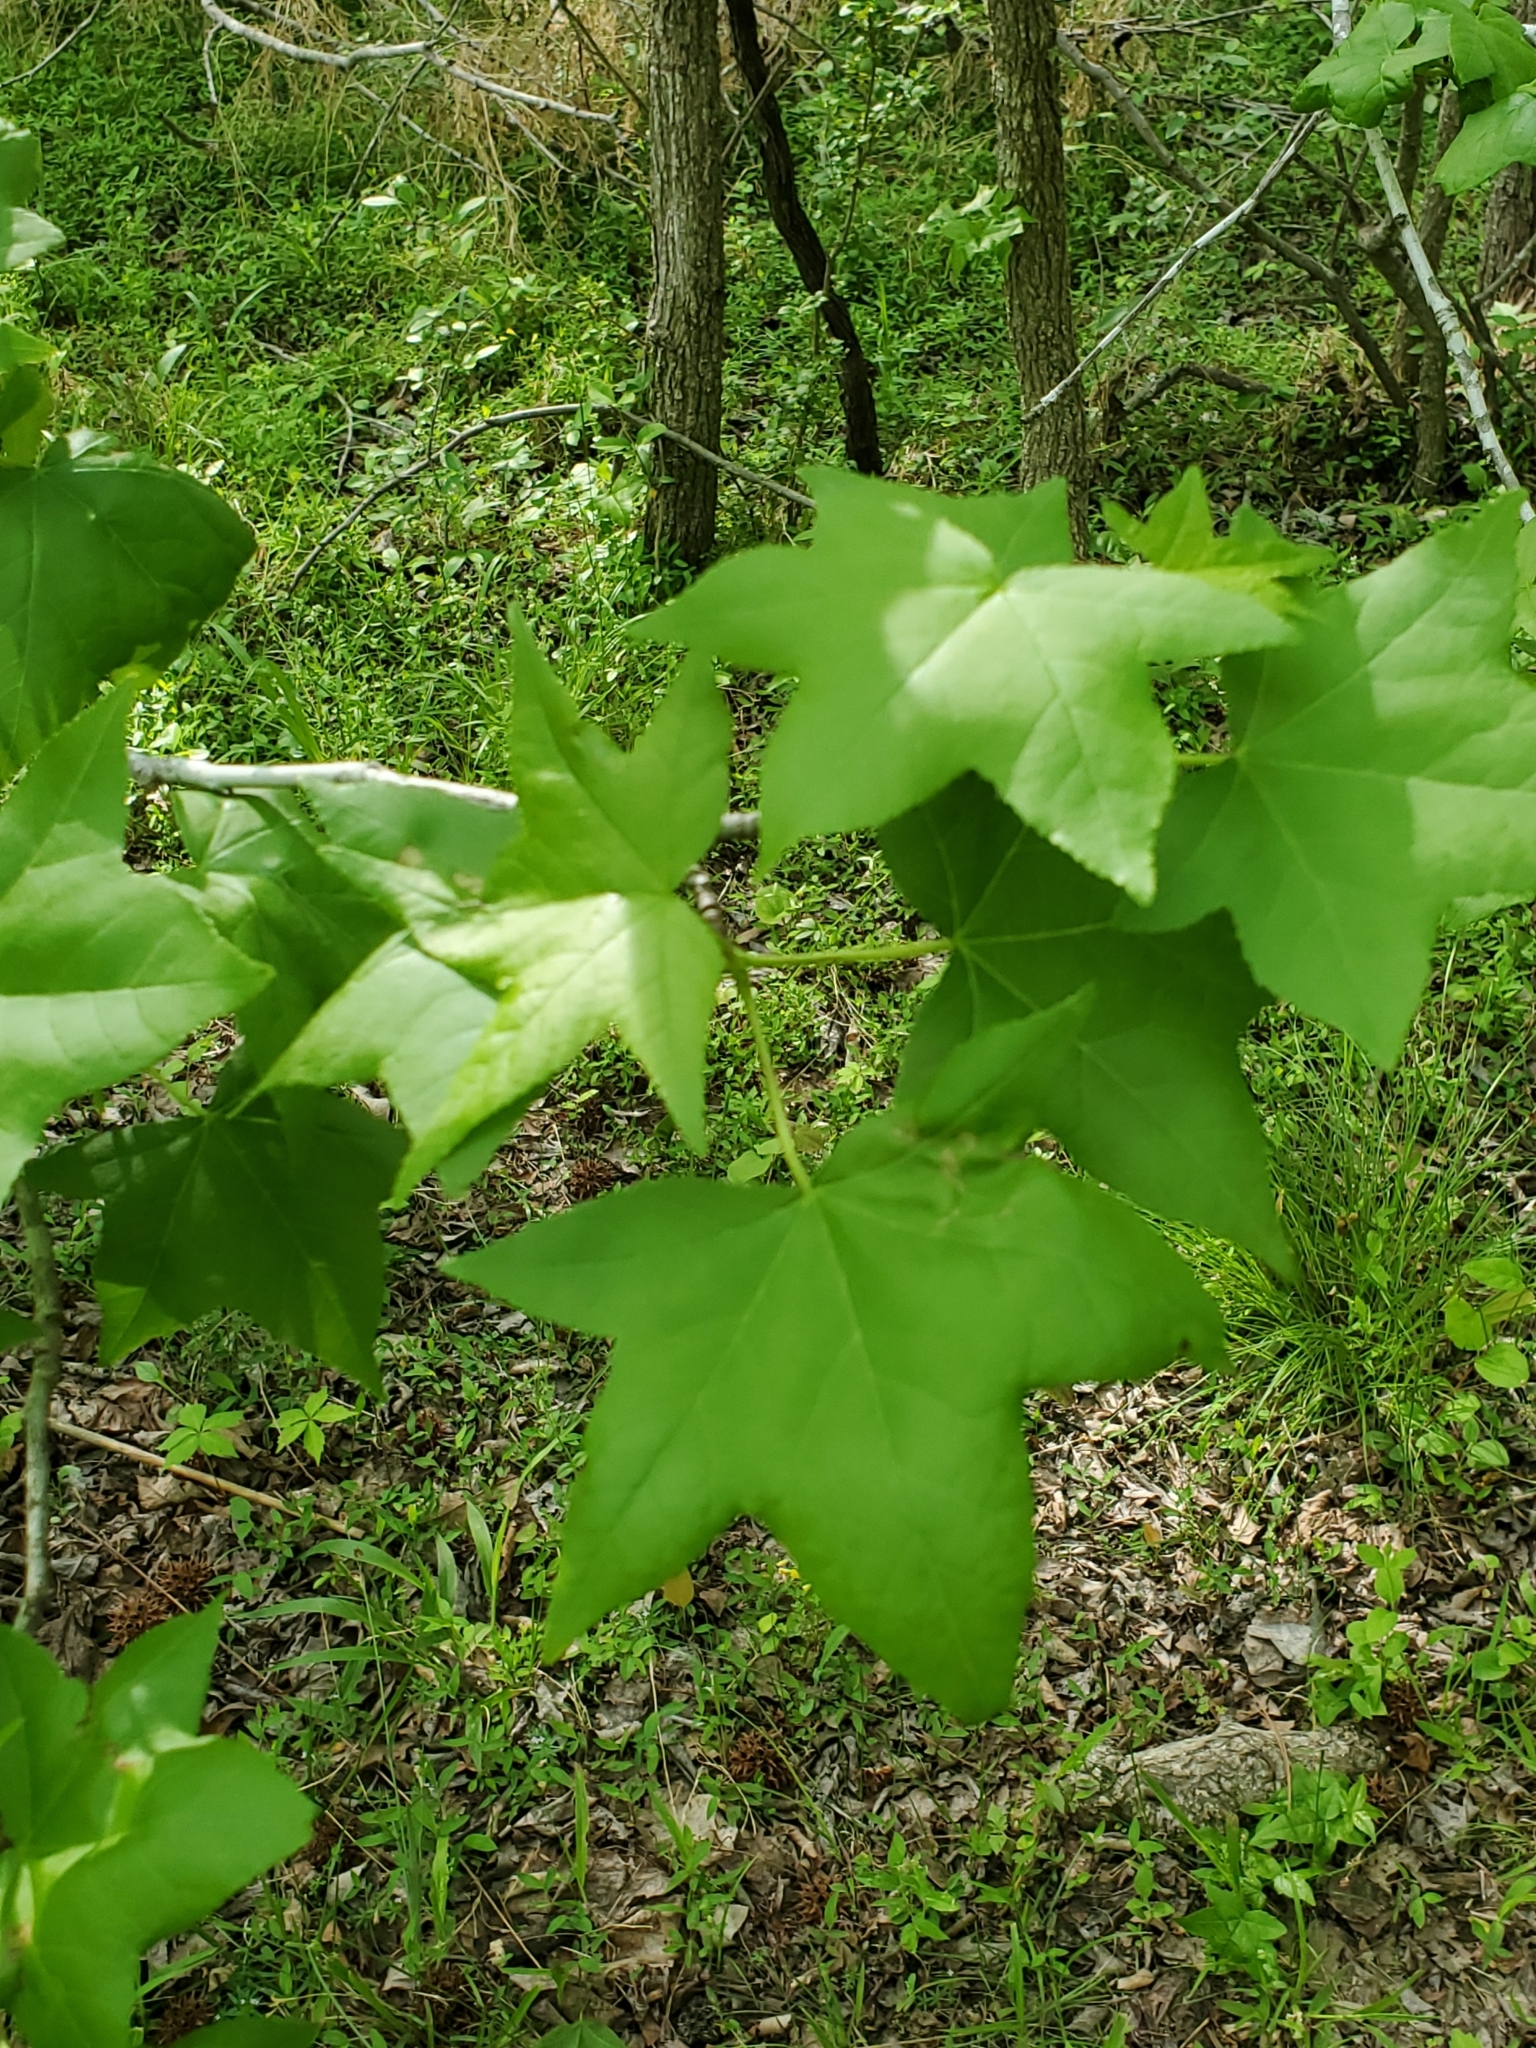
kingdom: Plantae
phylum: Tracheophyta
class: Magnoliopsida
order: Saxifragales
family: Altingiaceae
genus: Liquidambar
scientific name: Liquidambar styraciflua
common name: Sweet gum
